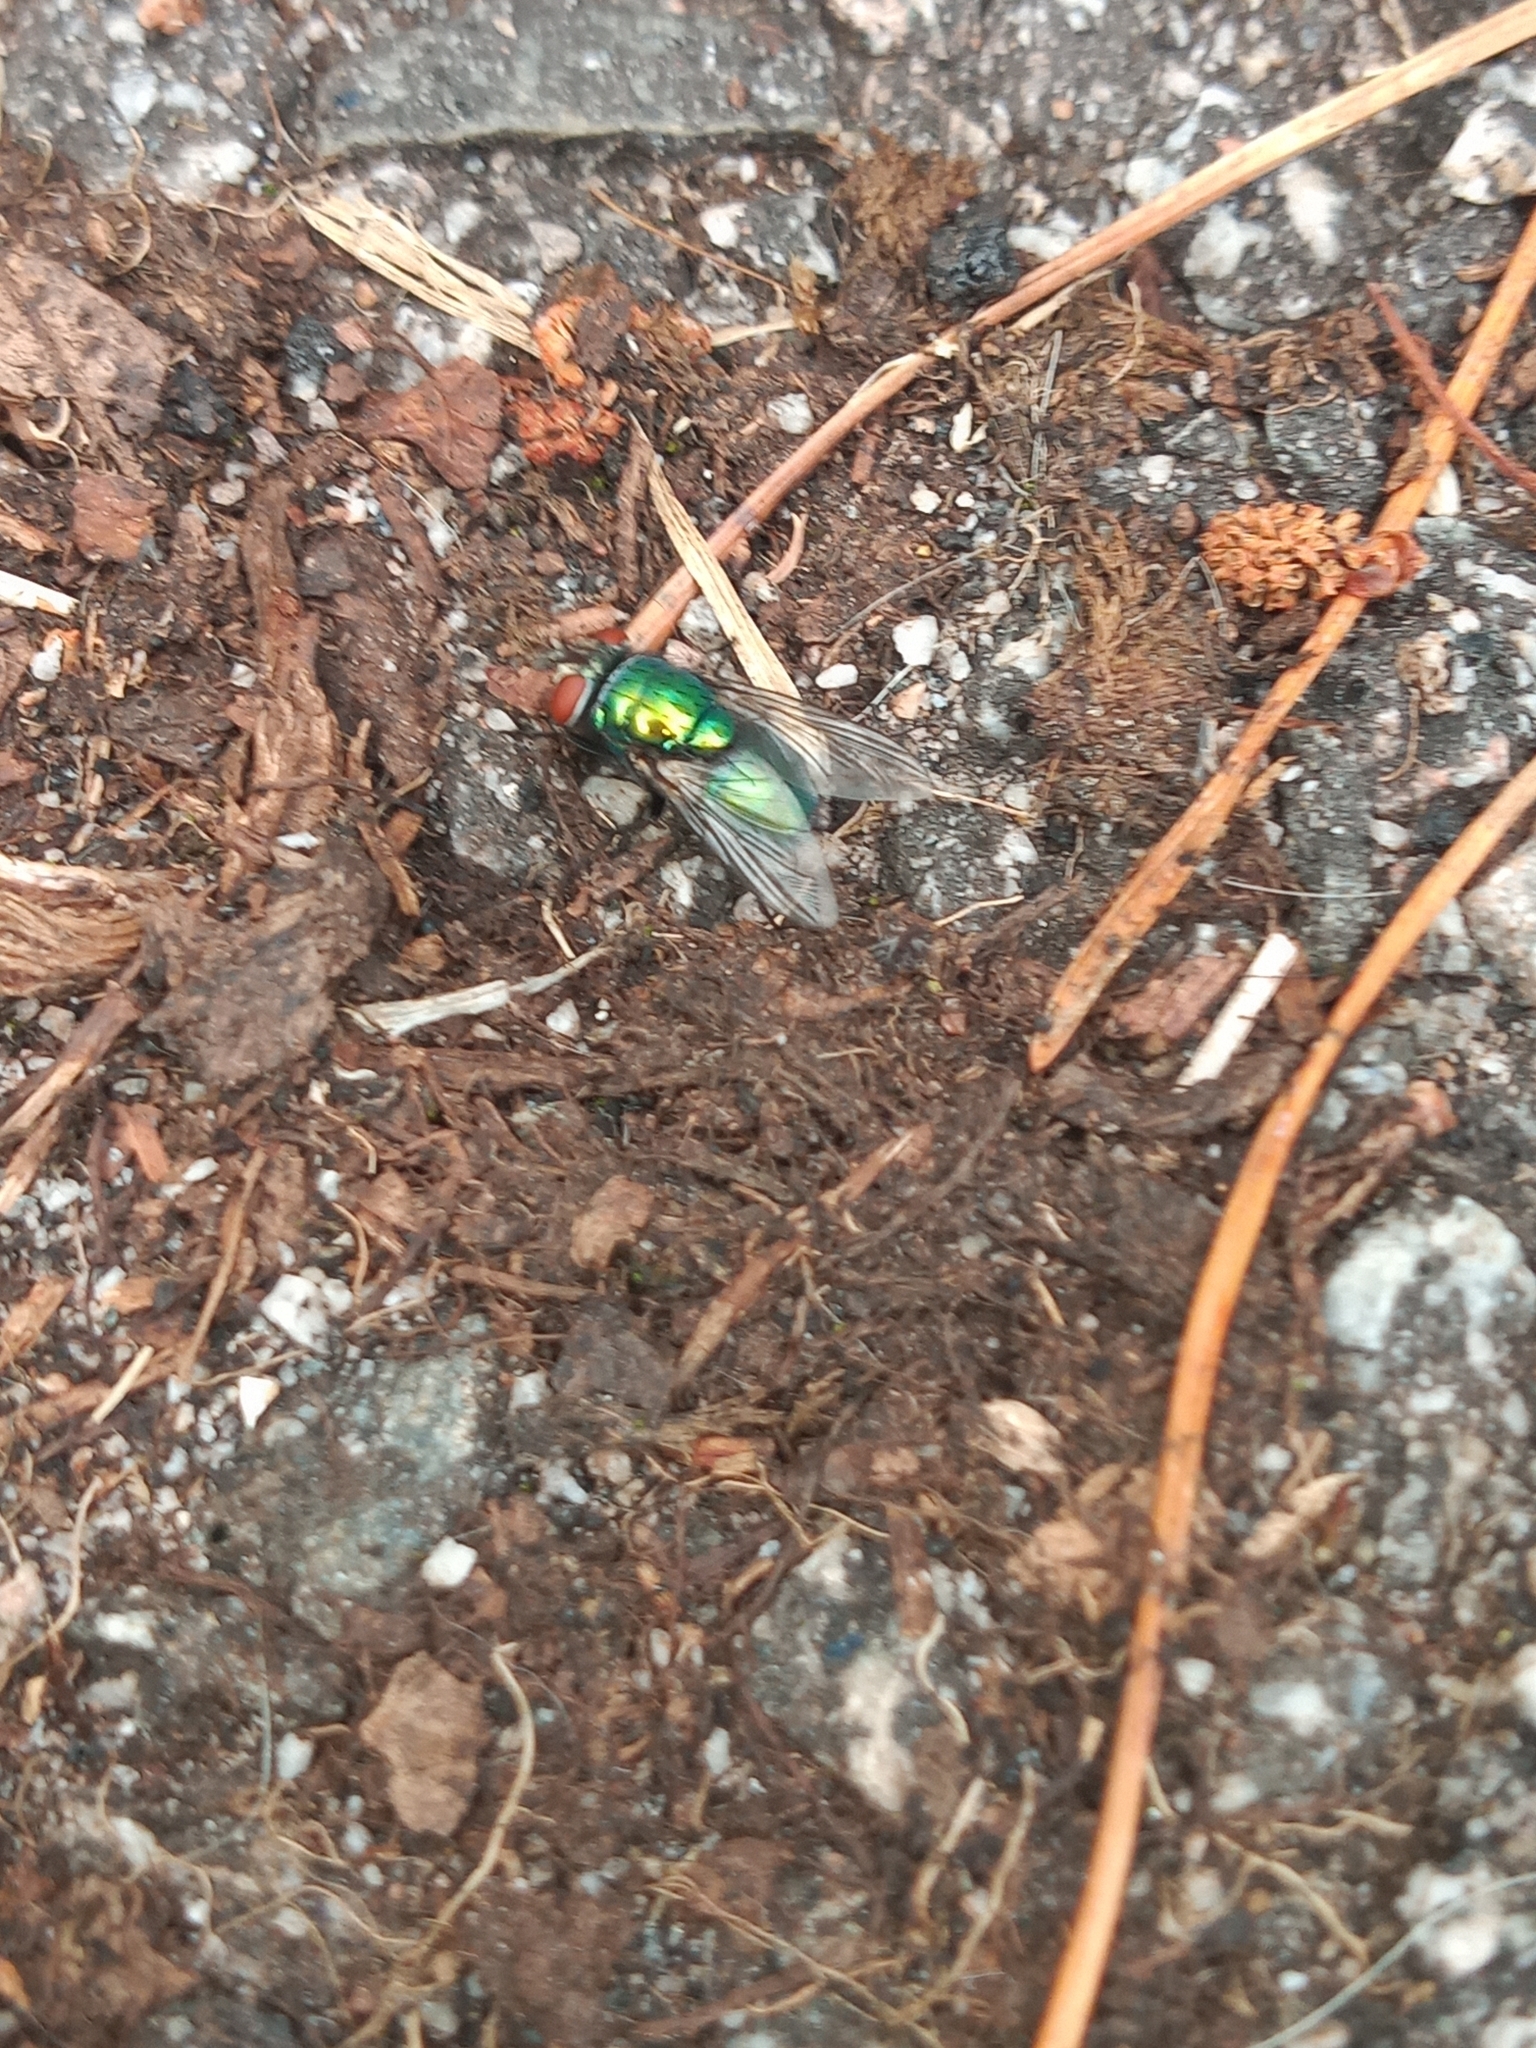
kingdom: Animalia
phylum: Arthropoda
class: Insecta
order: Diptera
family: Calliphoridae
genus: Lucilia
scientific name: Lucilia
